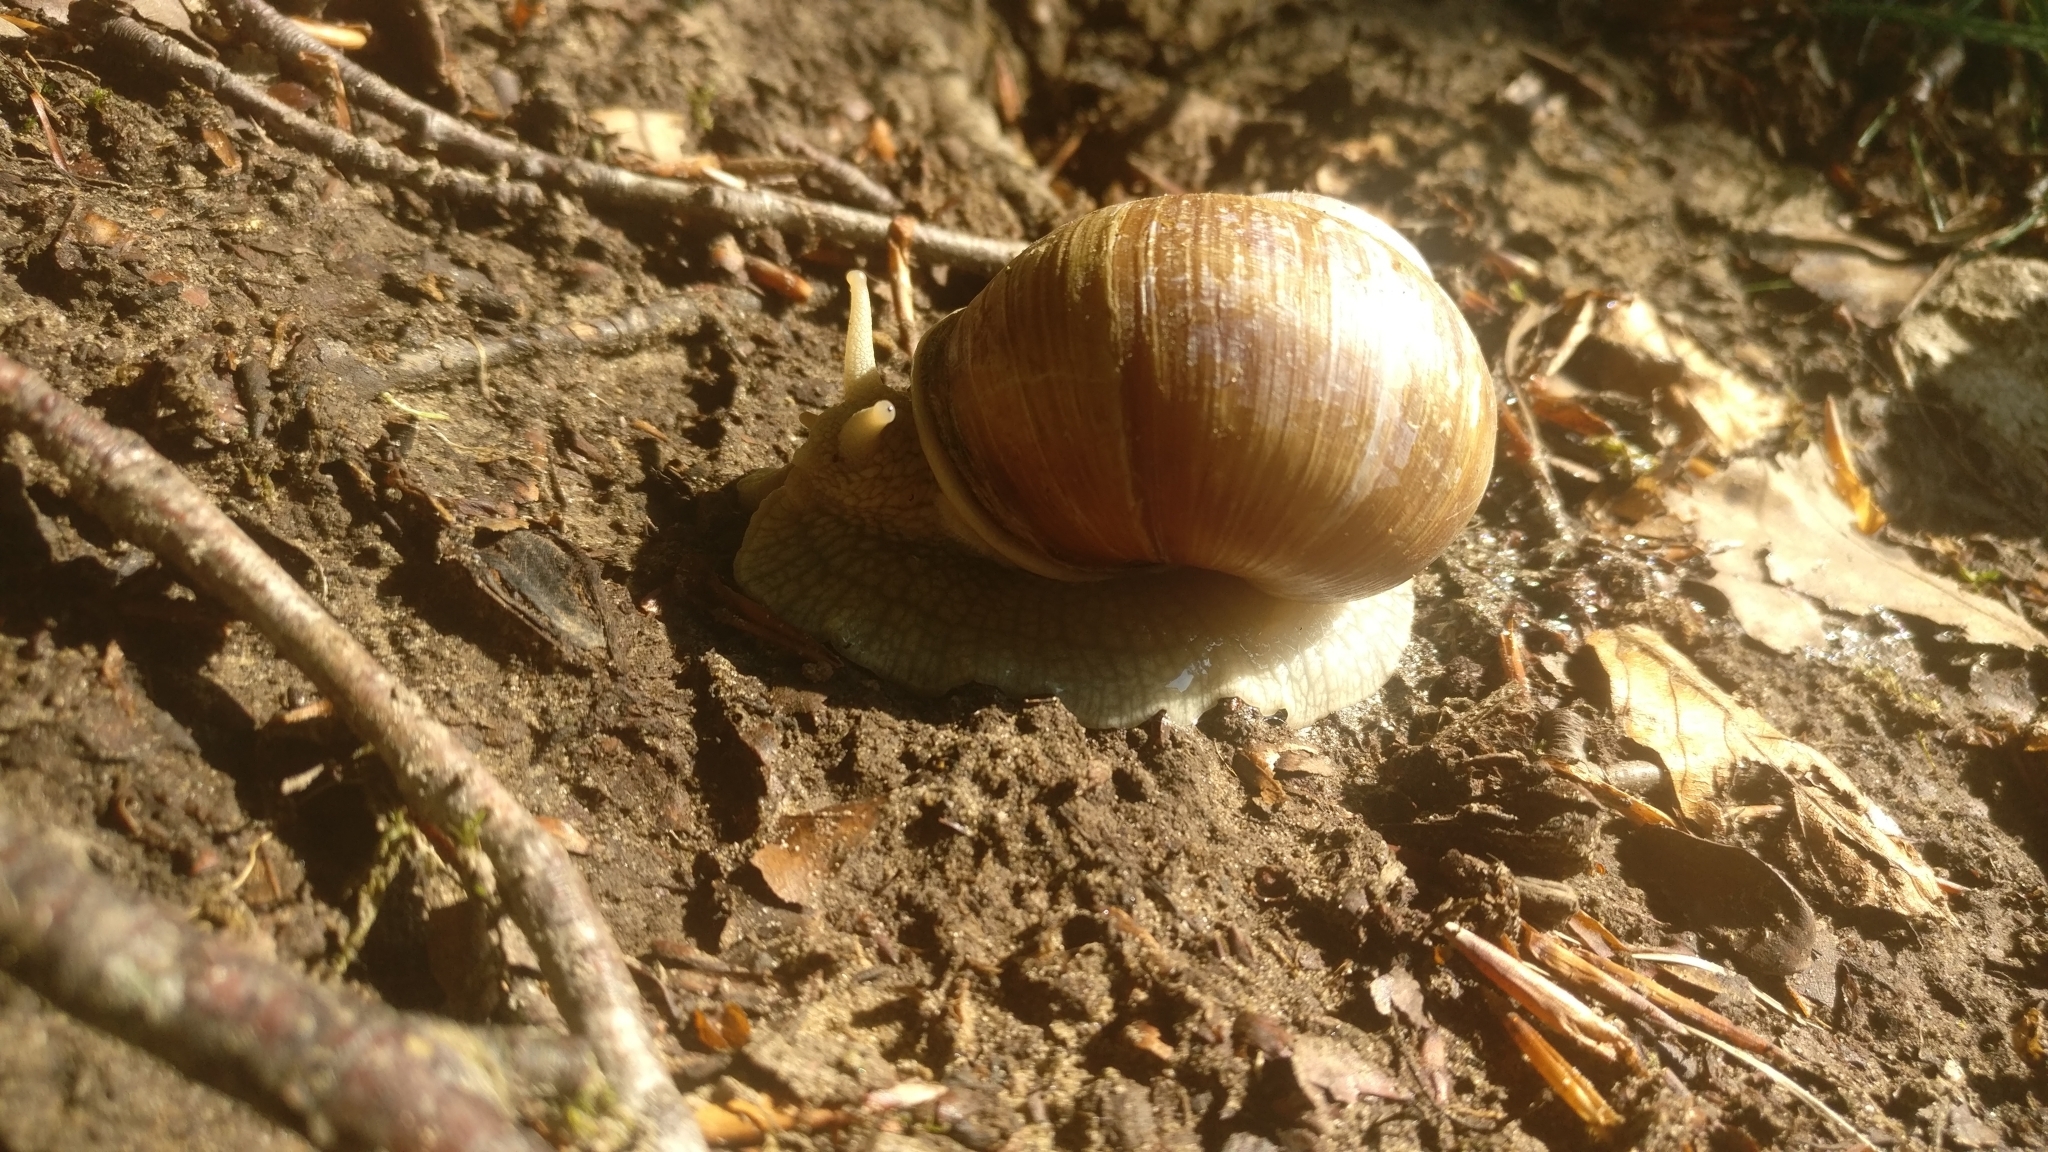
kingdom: Animalia
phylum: Mollusca
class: Gastropoda
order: Stylommatophora
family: Helicidae
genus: Helix
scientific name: Helix pomatia
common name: Roman snail
